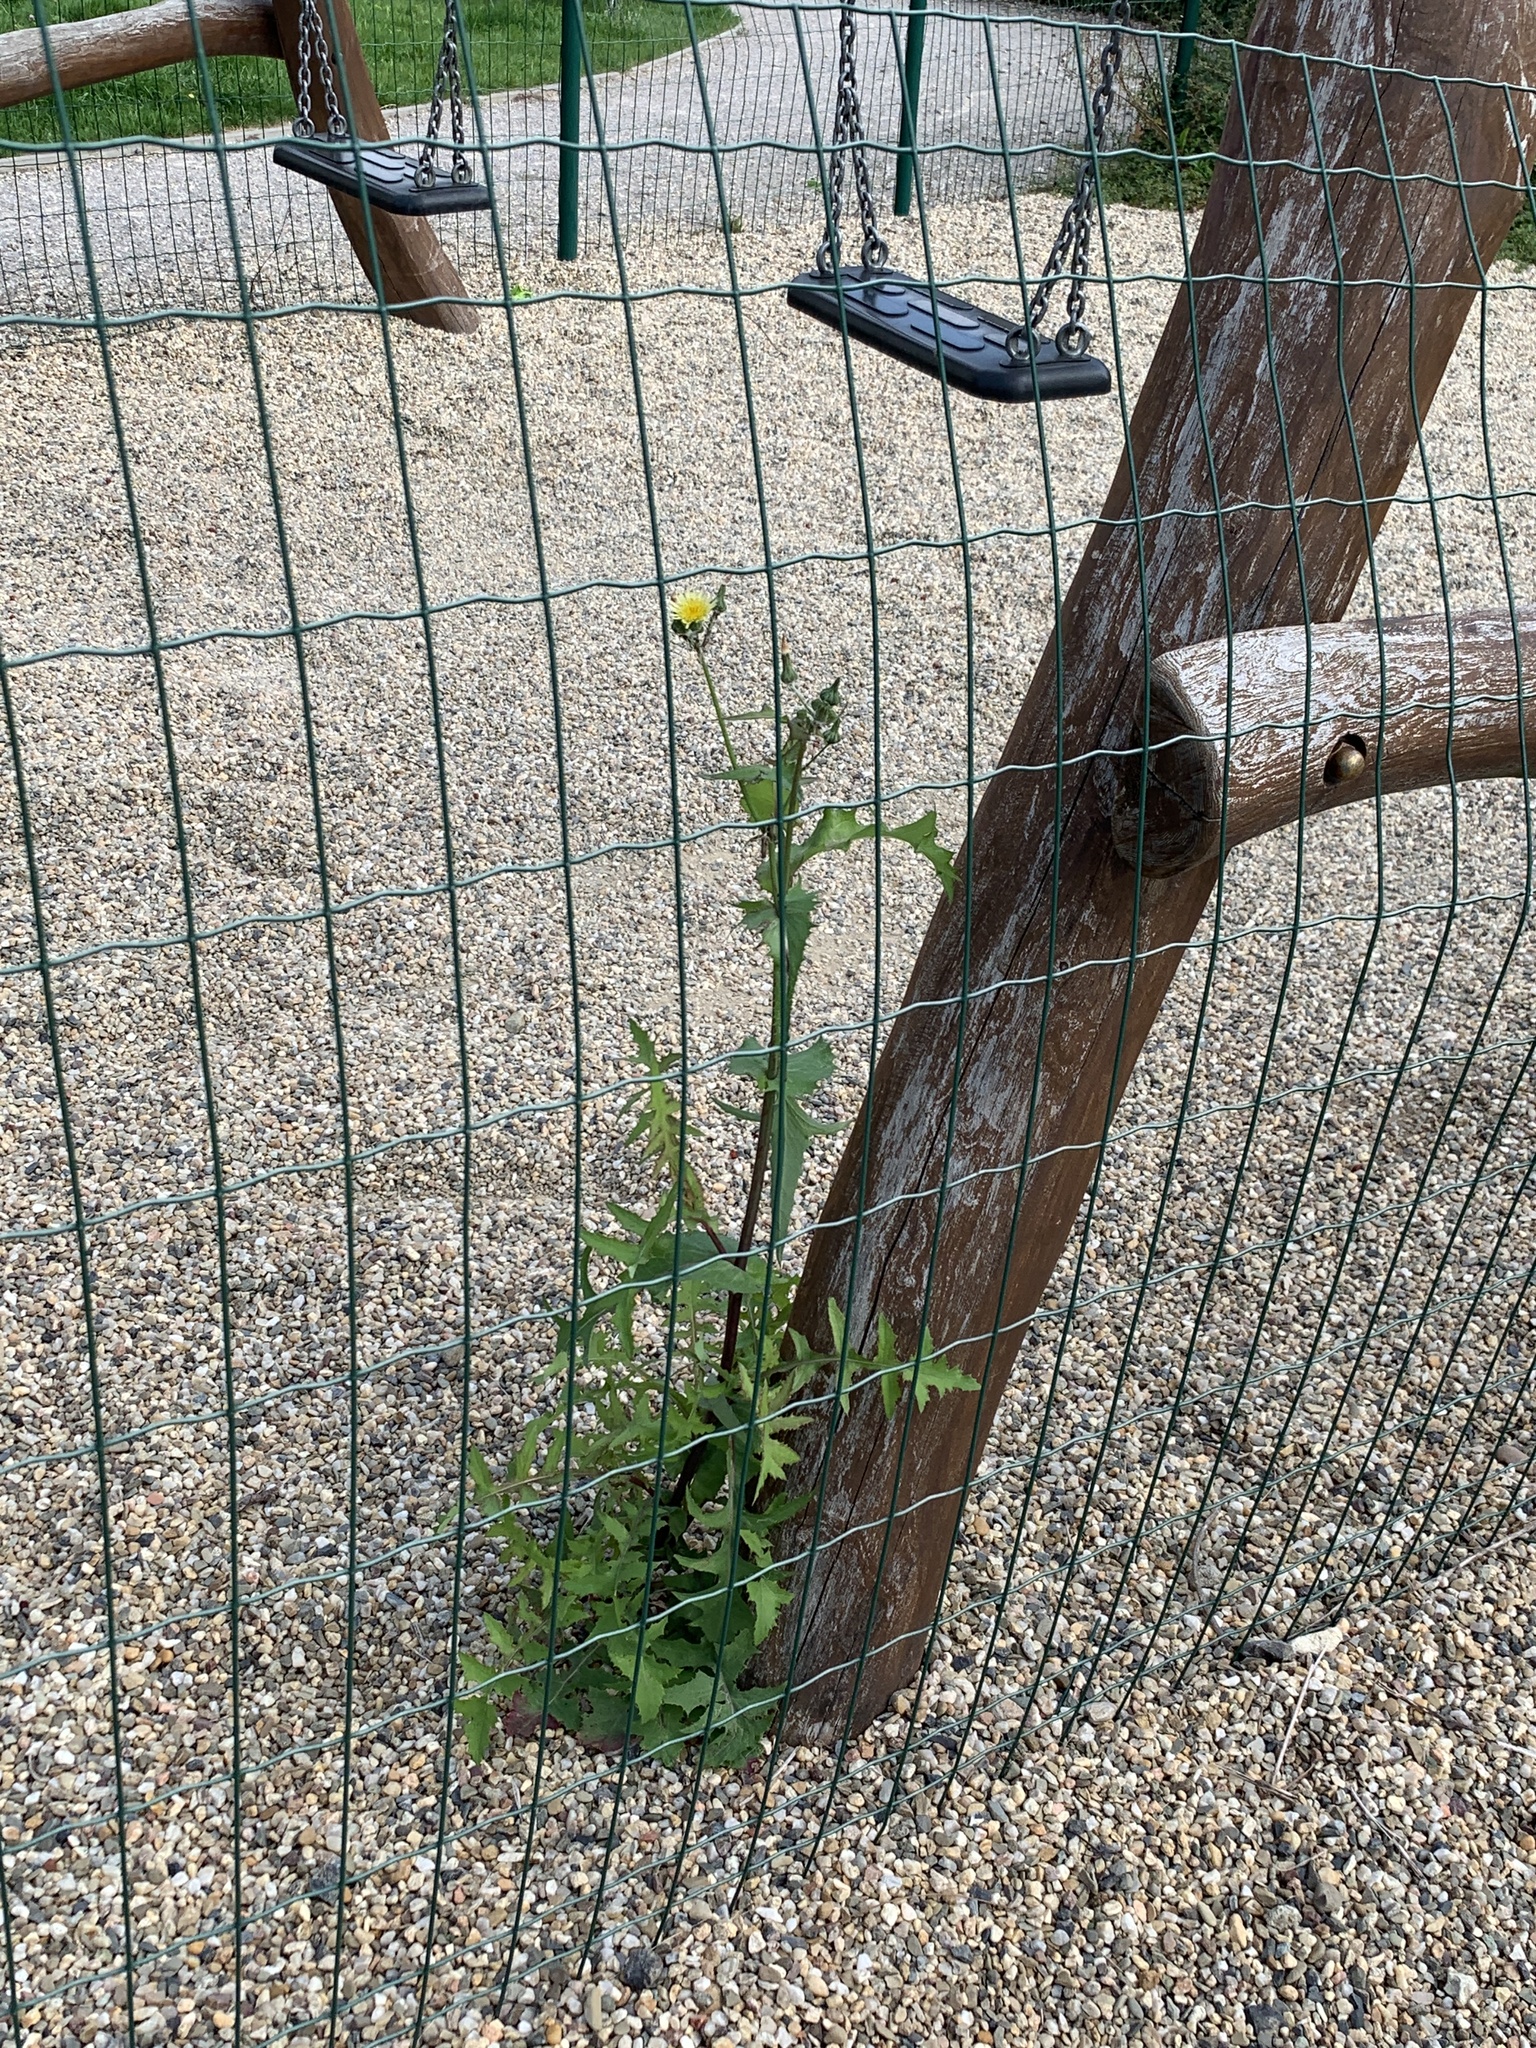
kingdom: Plantae
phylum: Tracheophyta
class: Magnoliopsida
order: Asterales
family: Asteraceae
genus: Sonchus
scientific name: Sonchus oleraceus
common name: Common sowthistle
